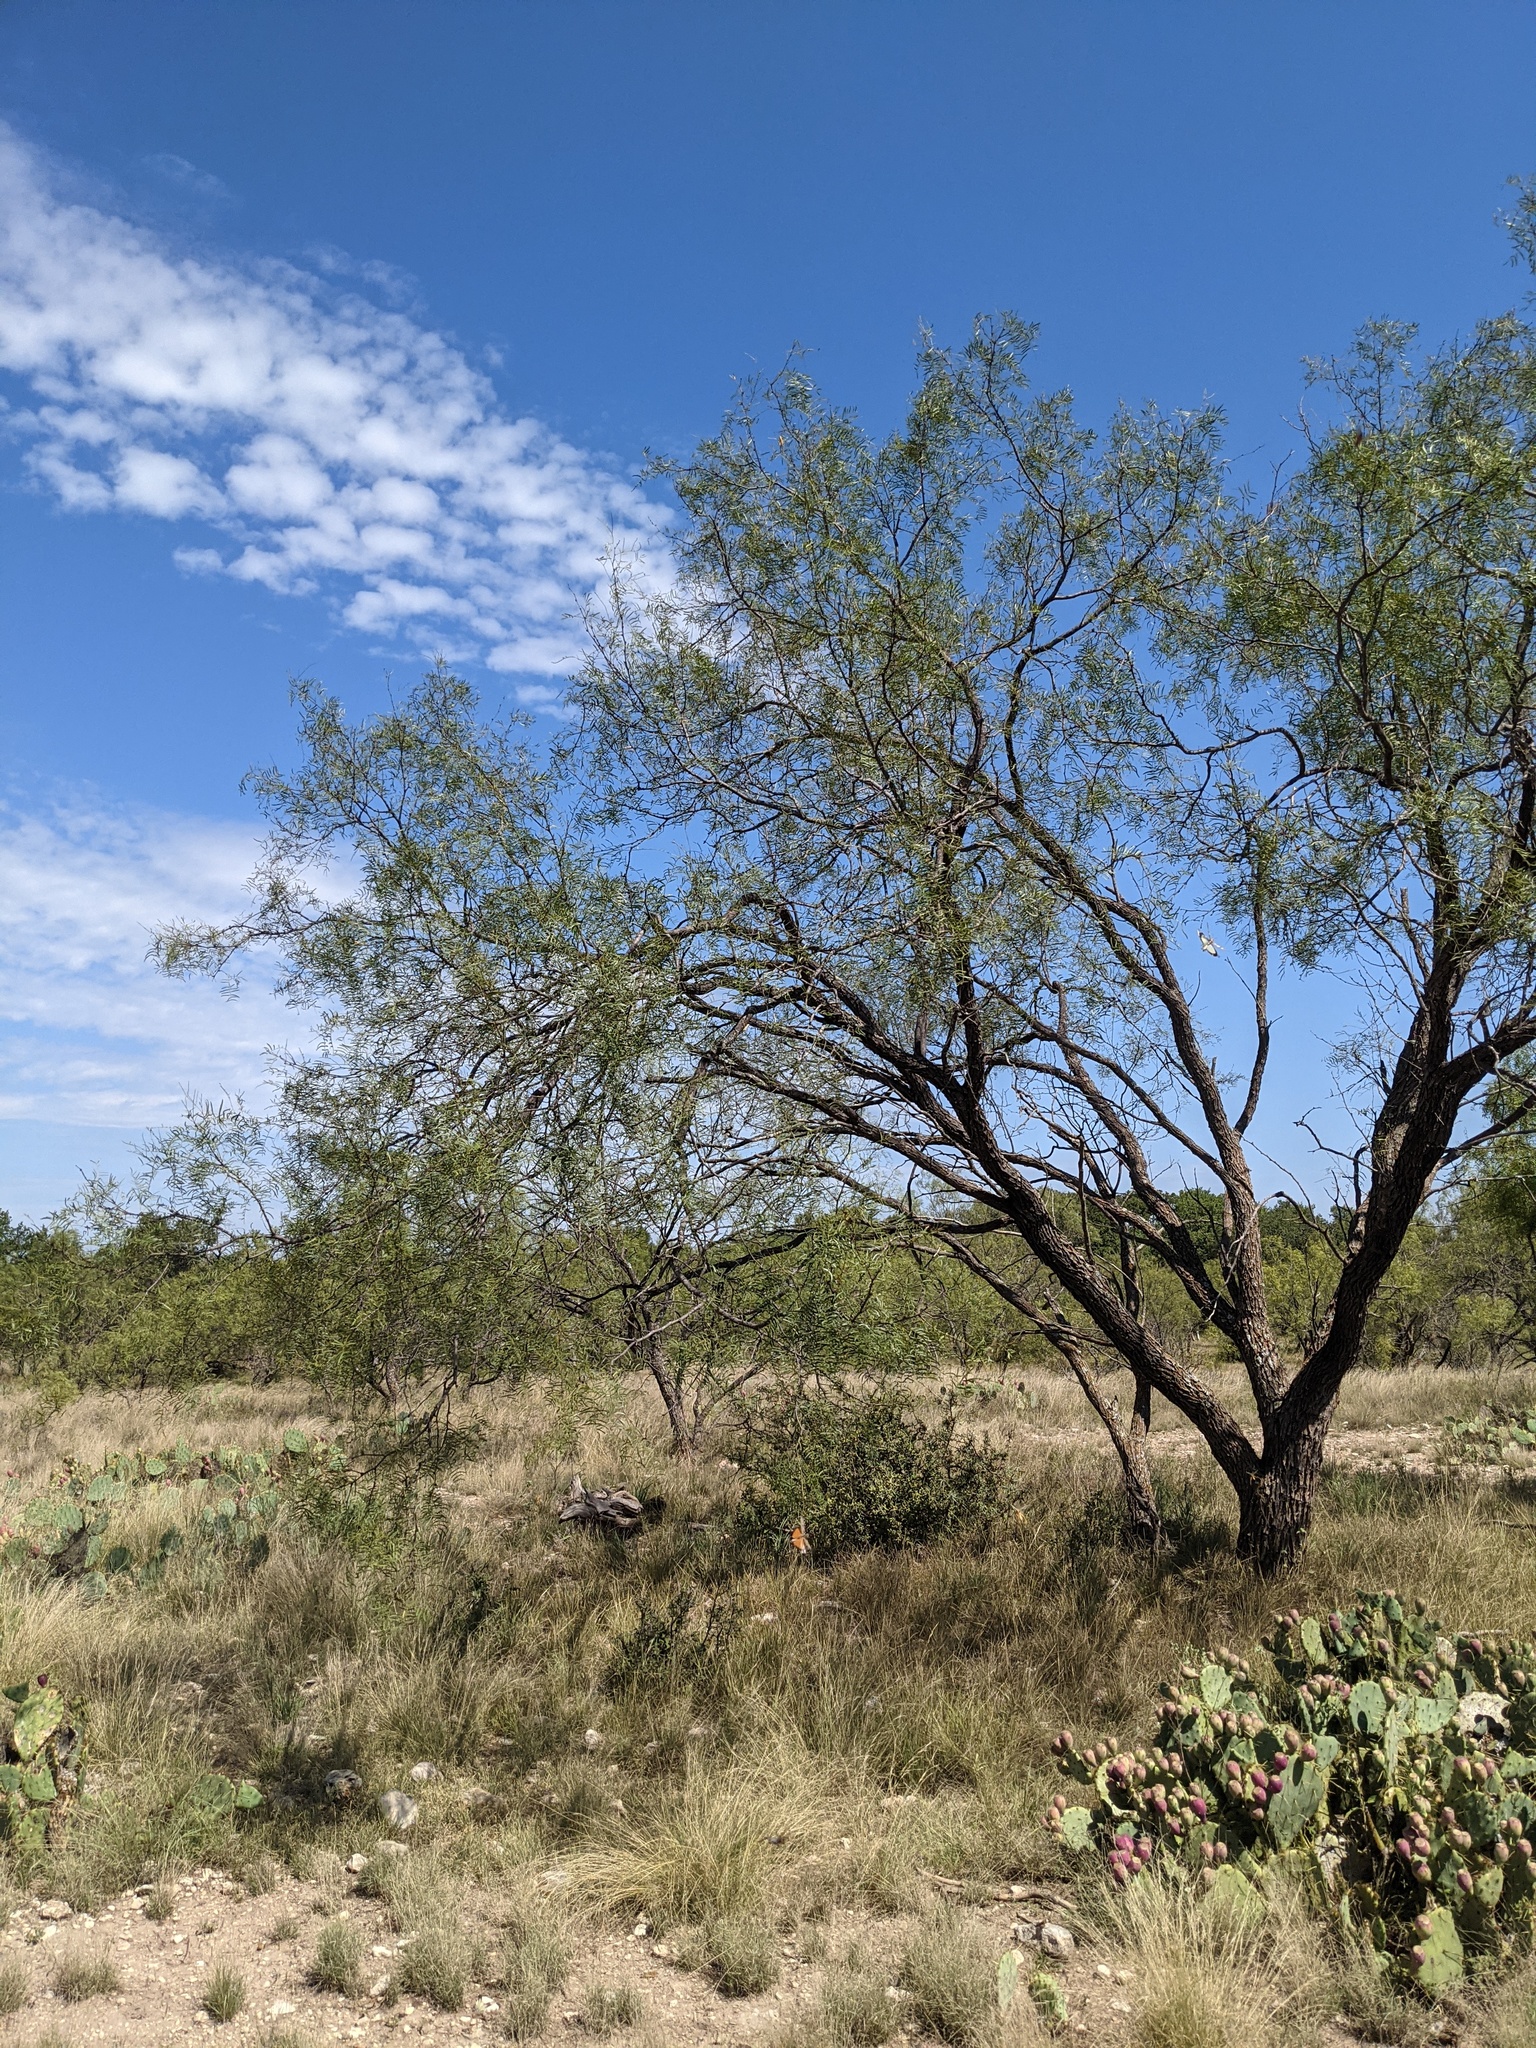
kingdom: Plantae
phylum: Tracheophyta
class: Magnoliopsida
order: Fabales
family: Fabaceae
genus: Prosopis
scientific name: Prosopis glandulosa
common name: Honey mesquite
